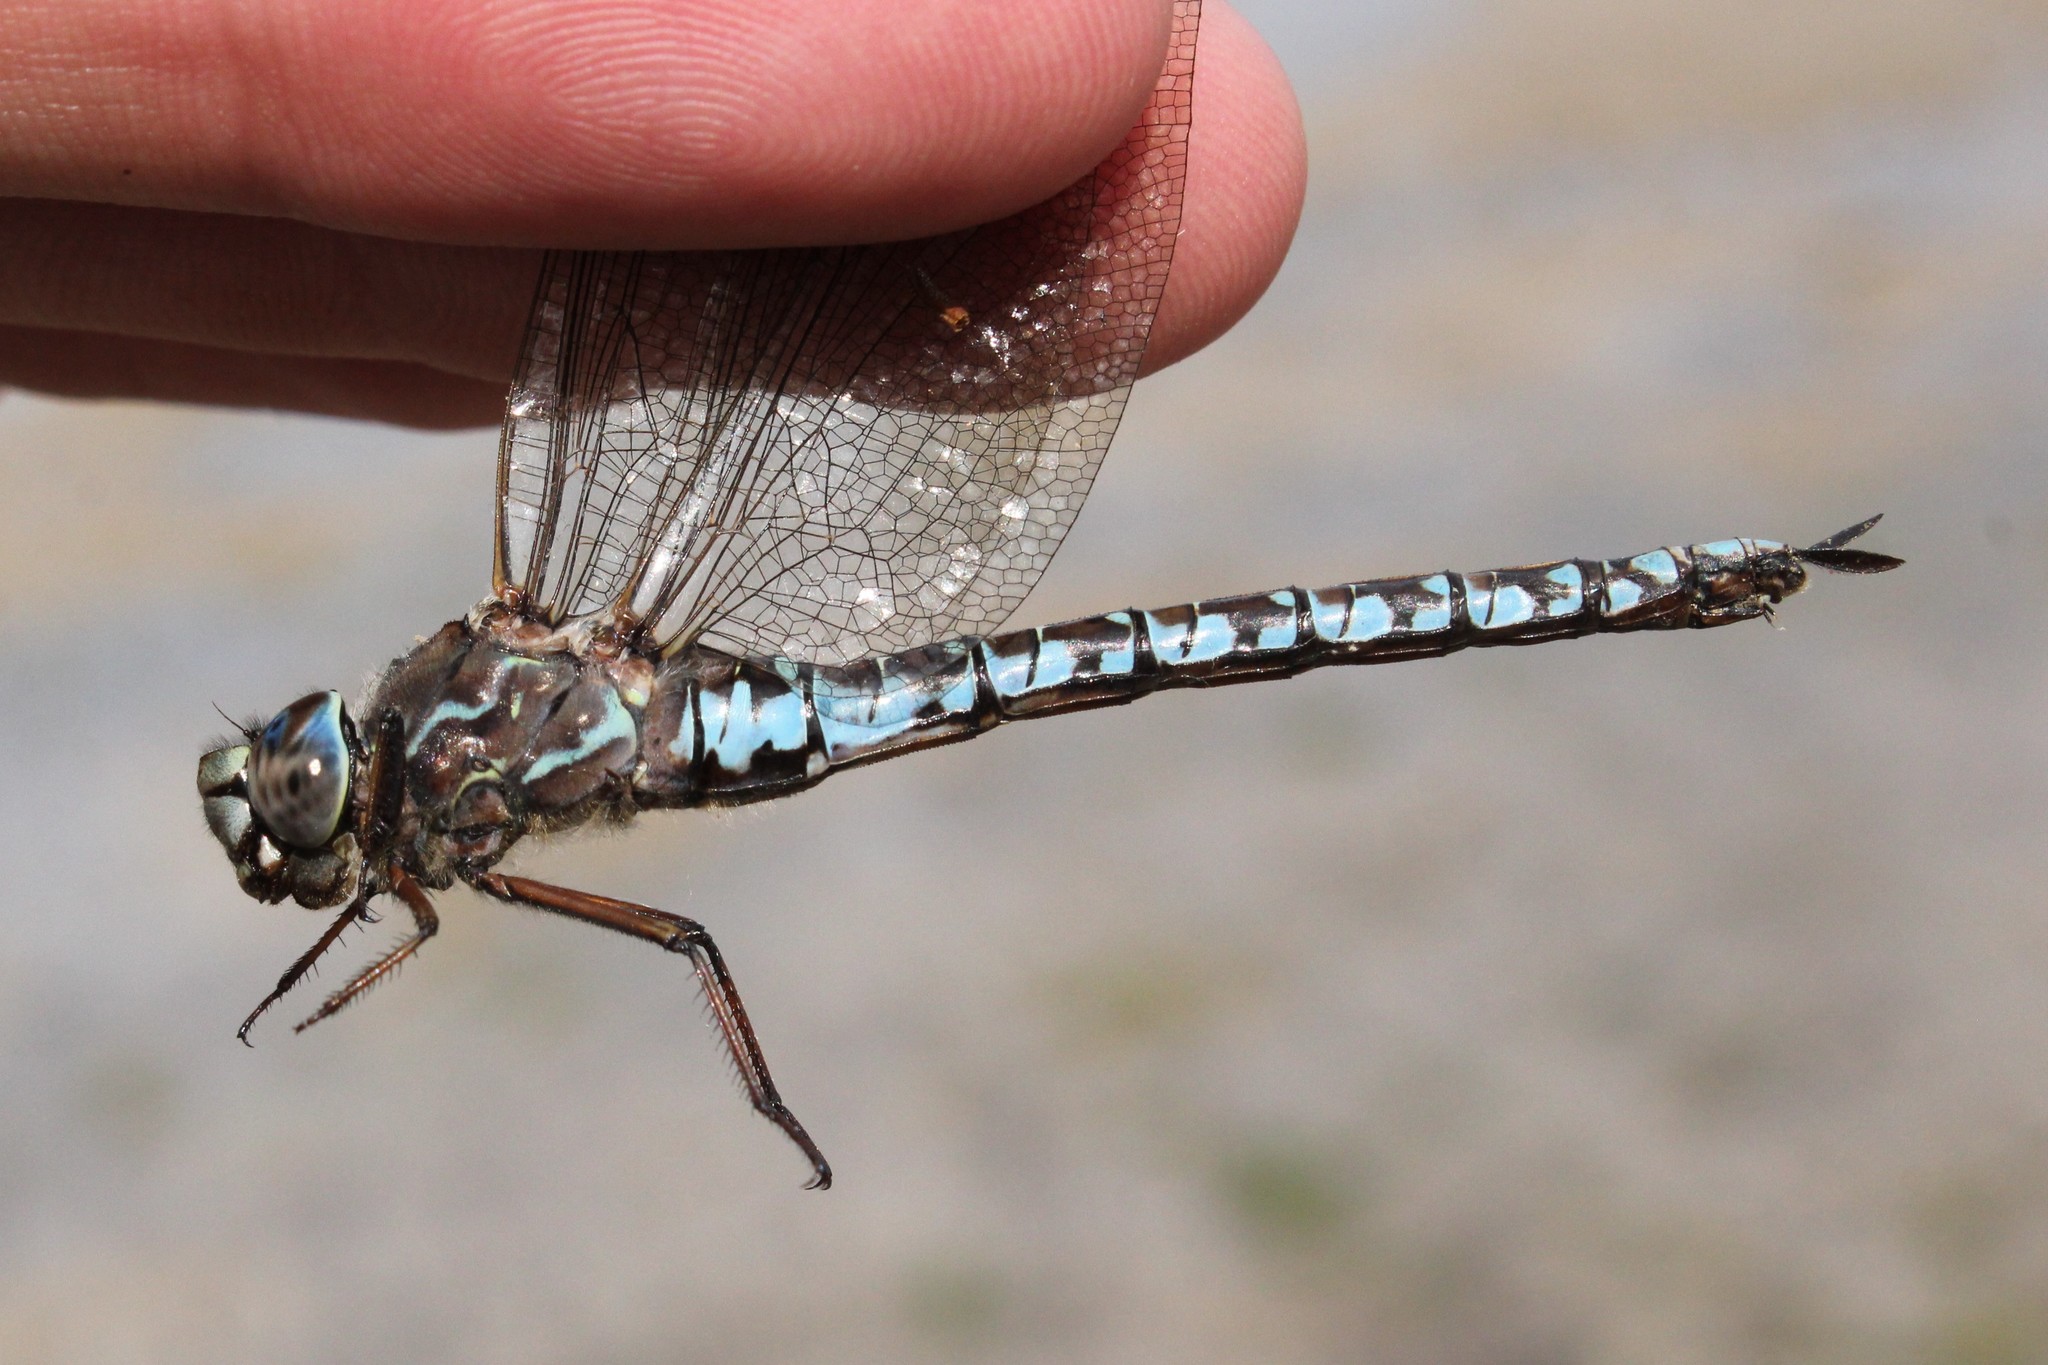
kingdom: Animalia
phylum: Arthropoda
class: Insecta
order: Odonata
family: Aeshnidae
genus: Aeshna
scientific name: Aeshna sitchensis
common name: Zigzag darner
